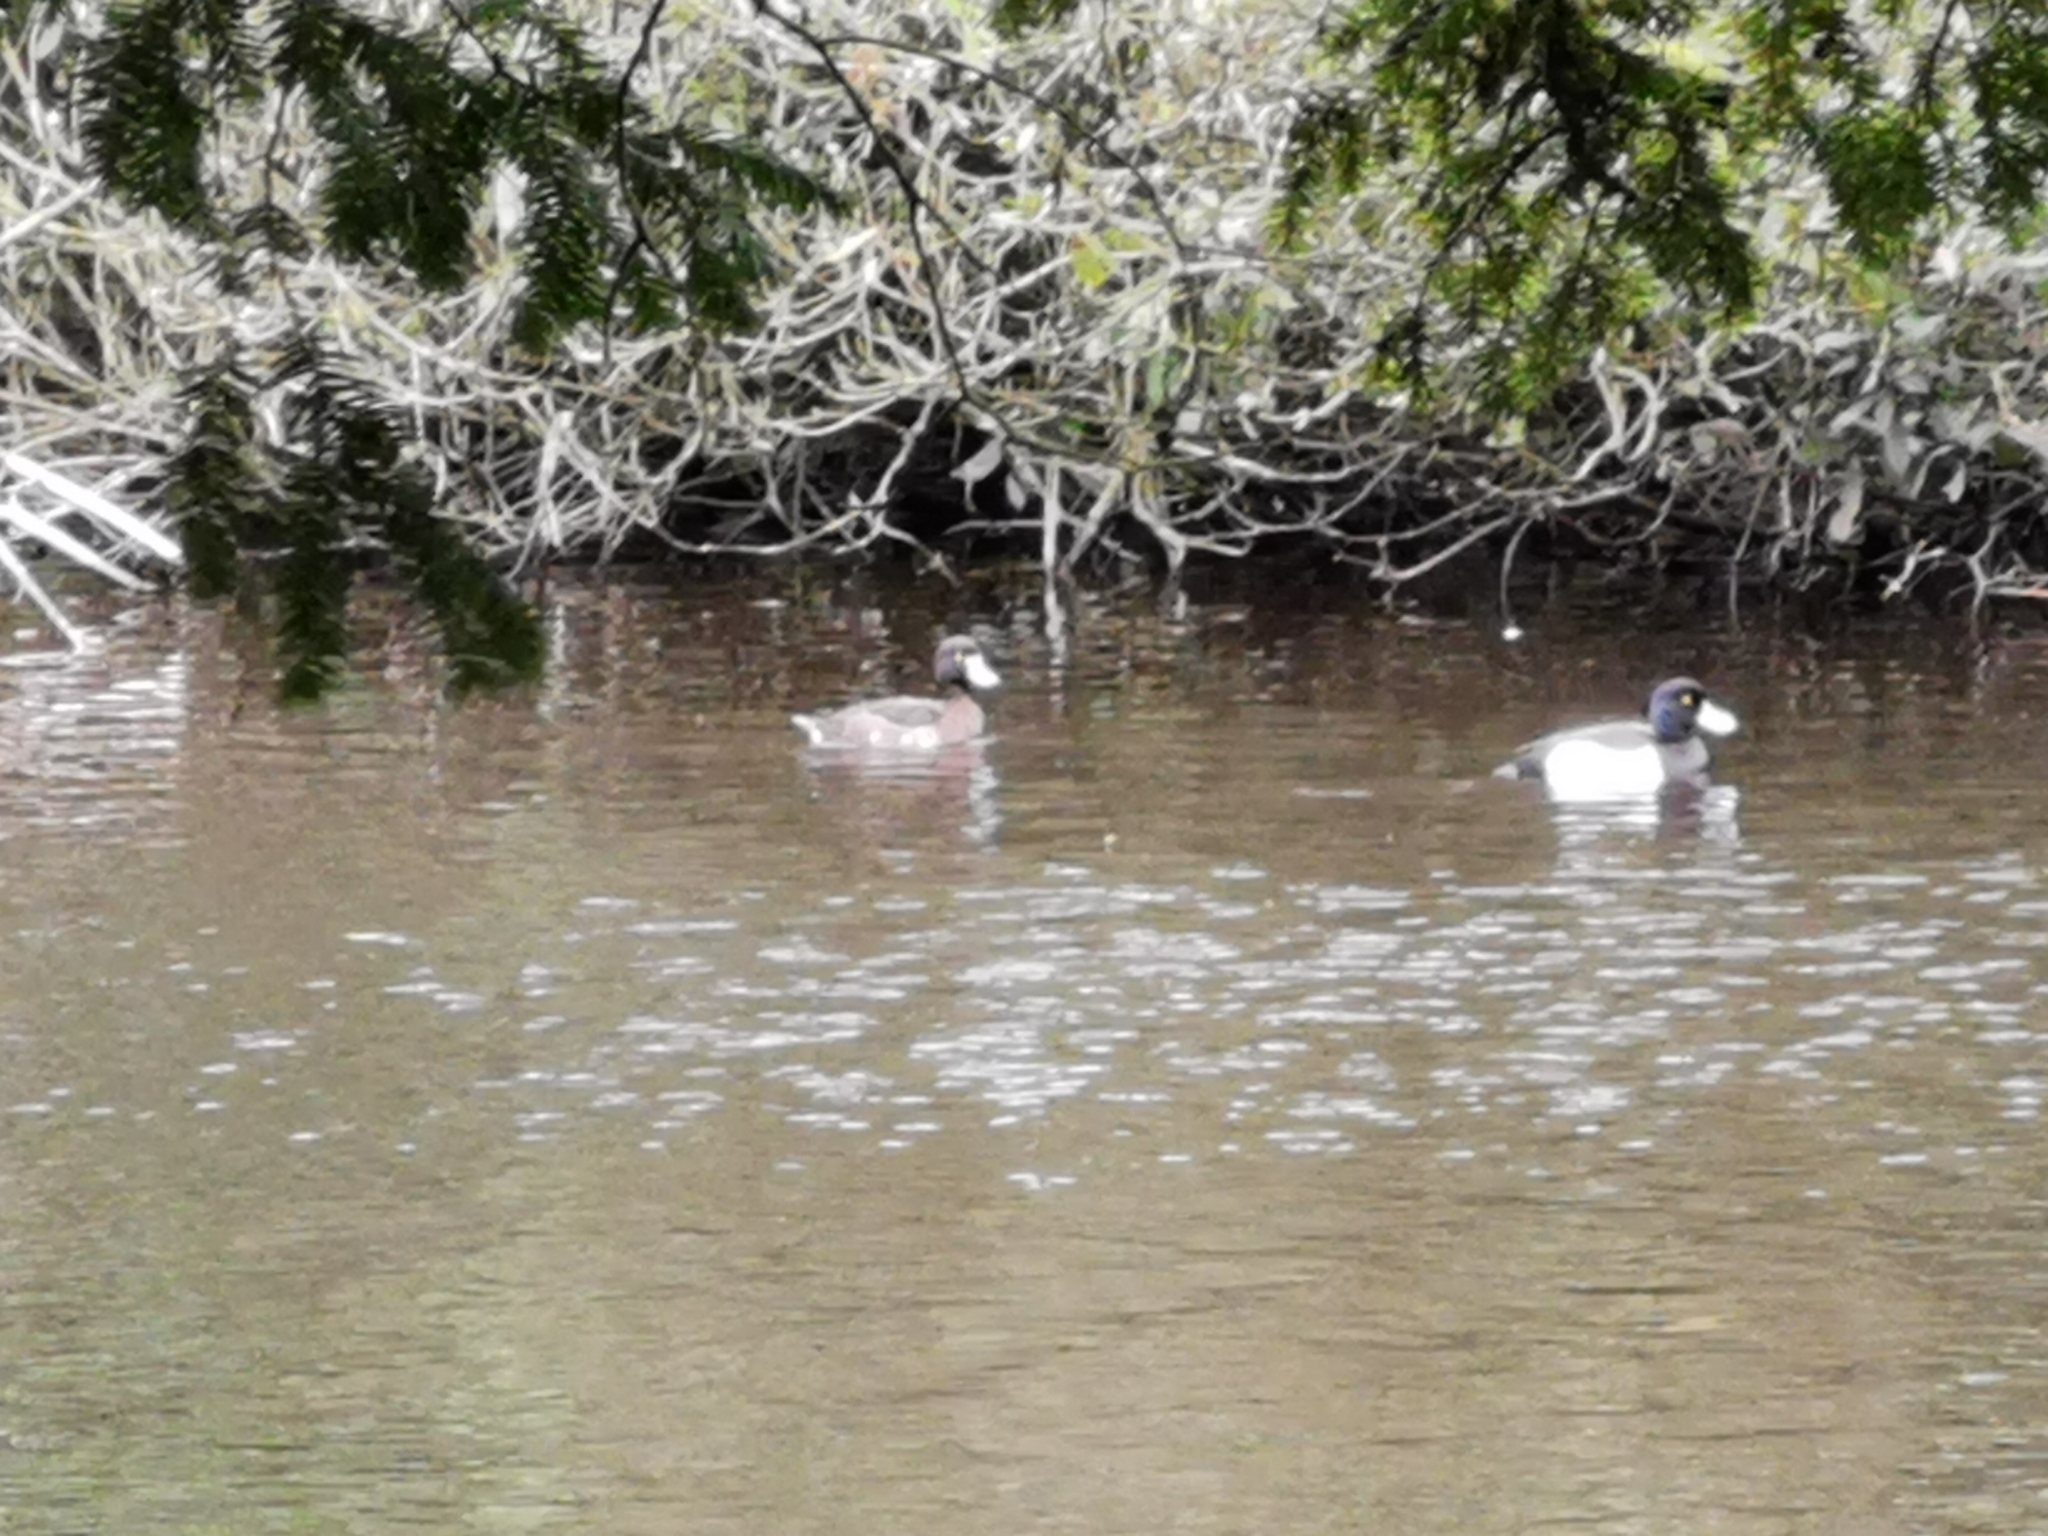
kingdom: Animalia
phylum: Chordata
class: Aves
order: Anseriformes
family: Anatidae
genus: Aythya
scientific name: Aythya fuligula
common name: Tufted duck
